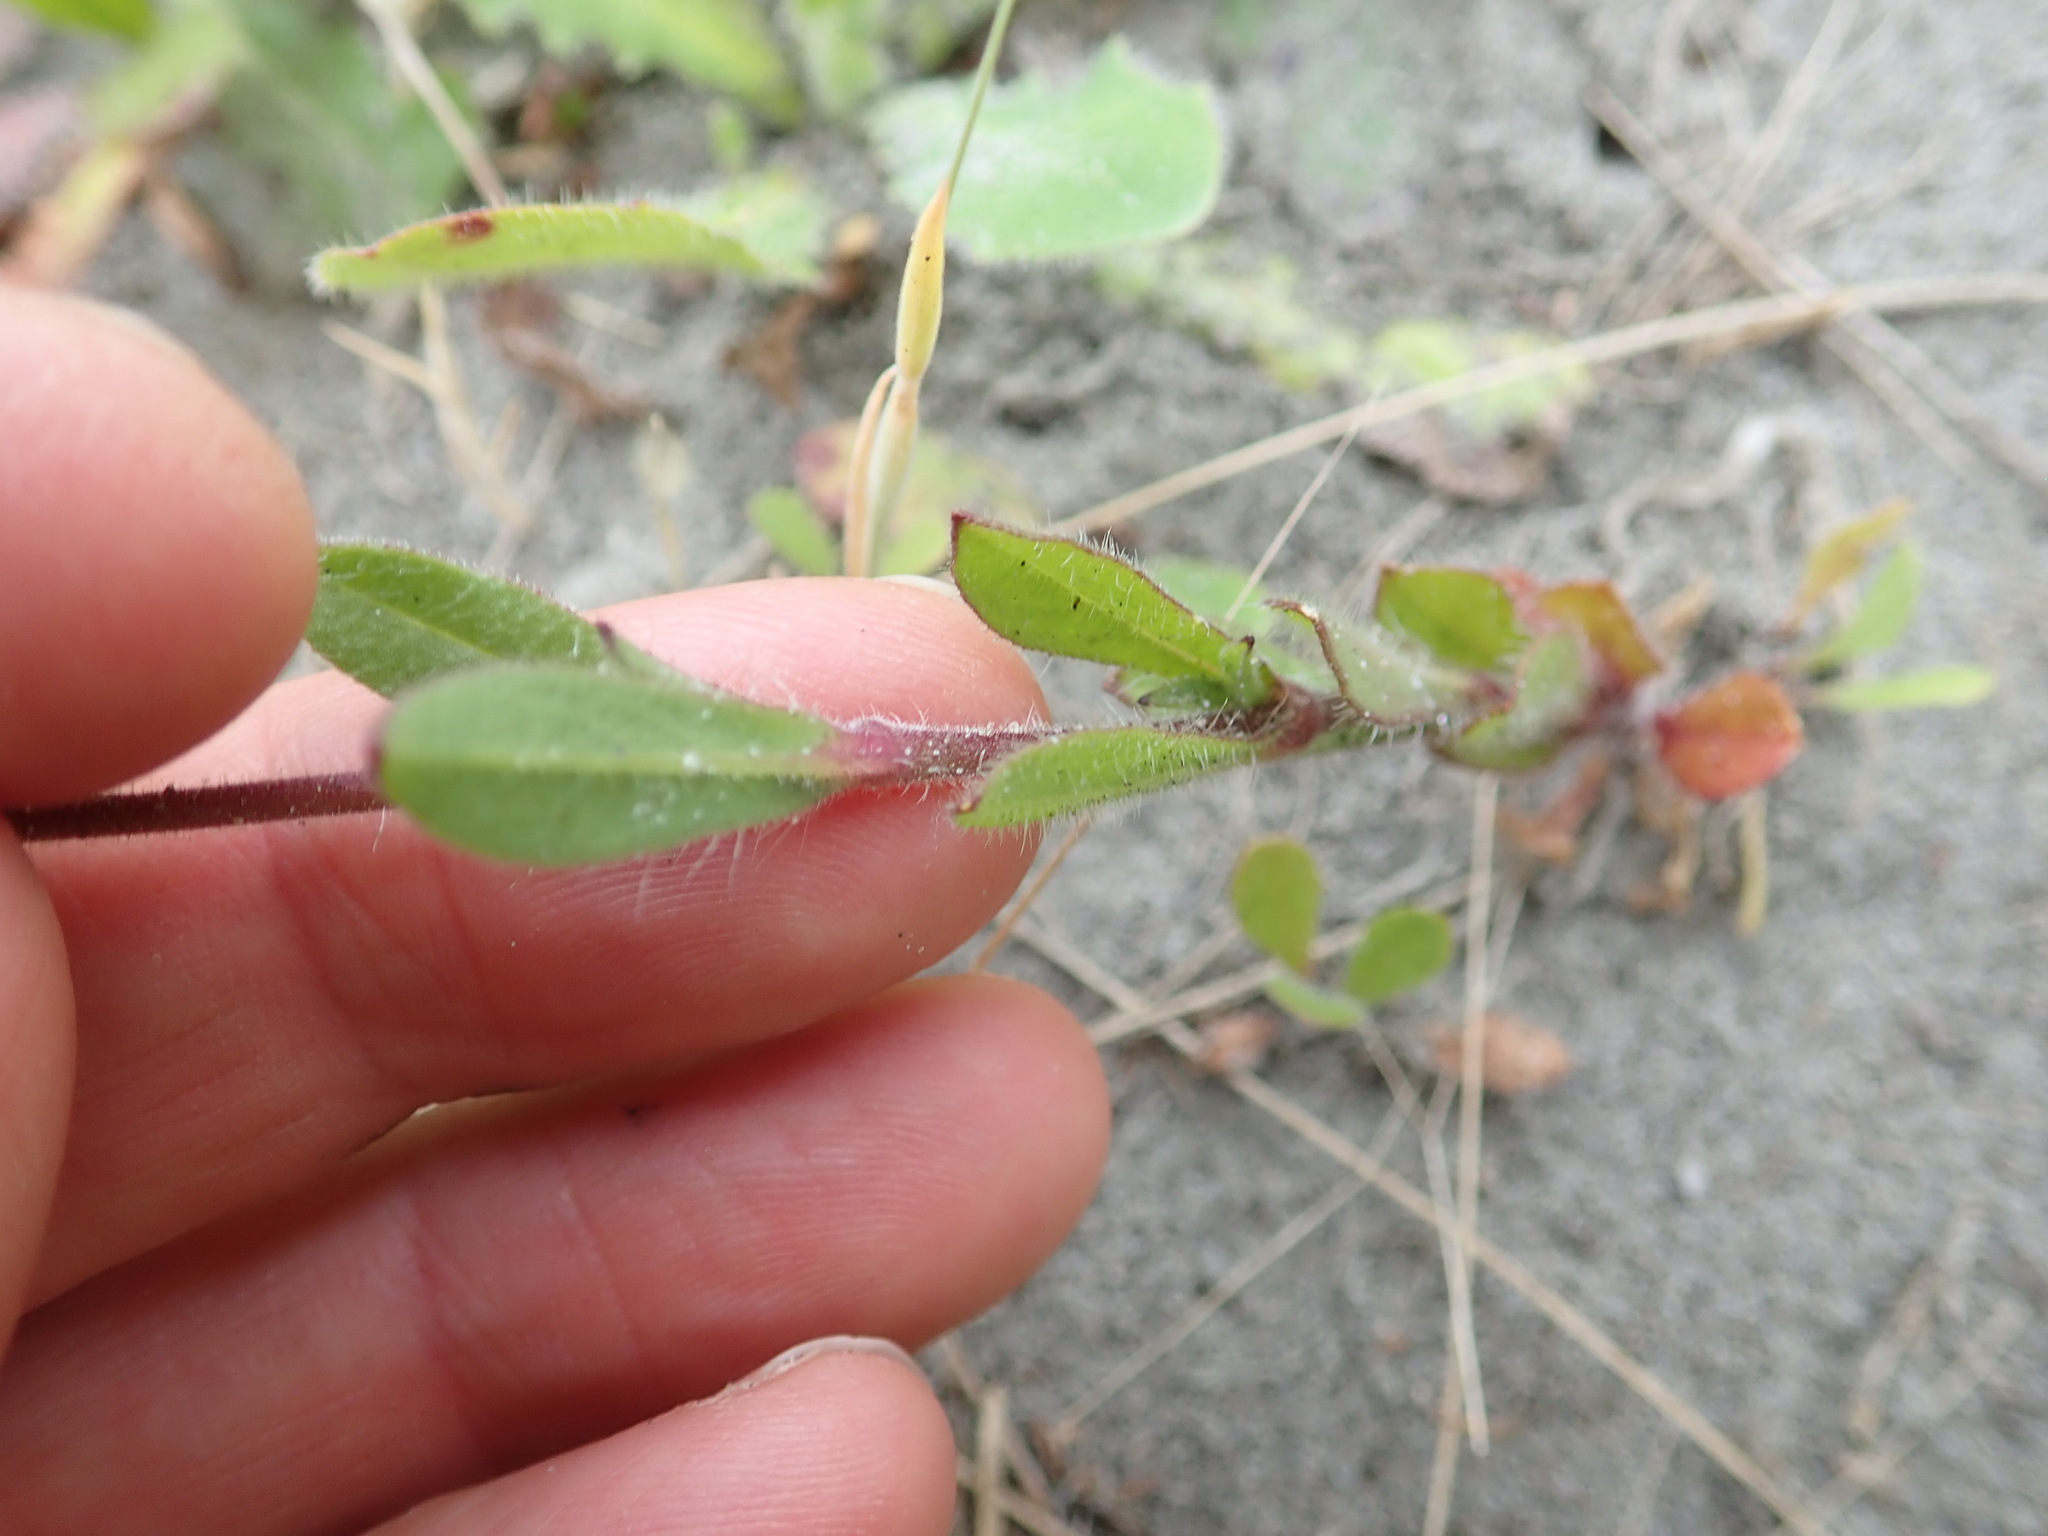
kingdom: Plantae
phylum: Tracheophyta
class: Magnoliopsida
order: Caryophyllales
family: Caryophyllaceae
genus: Silene
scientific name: Silene gallica
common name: Small-flowered catchfly
